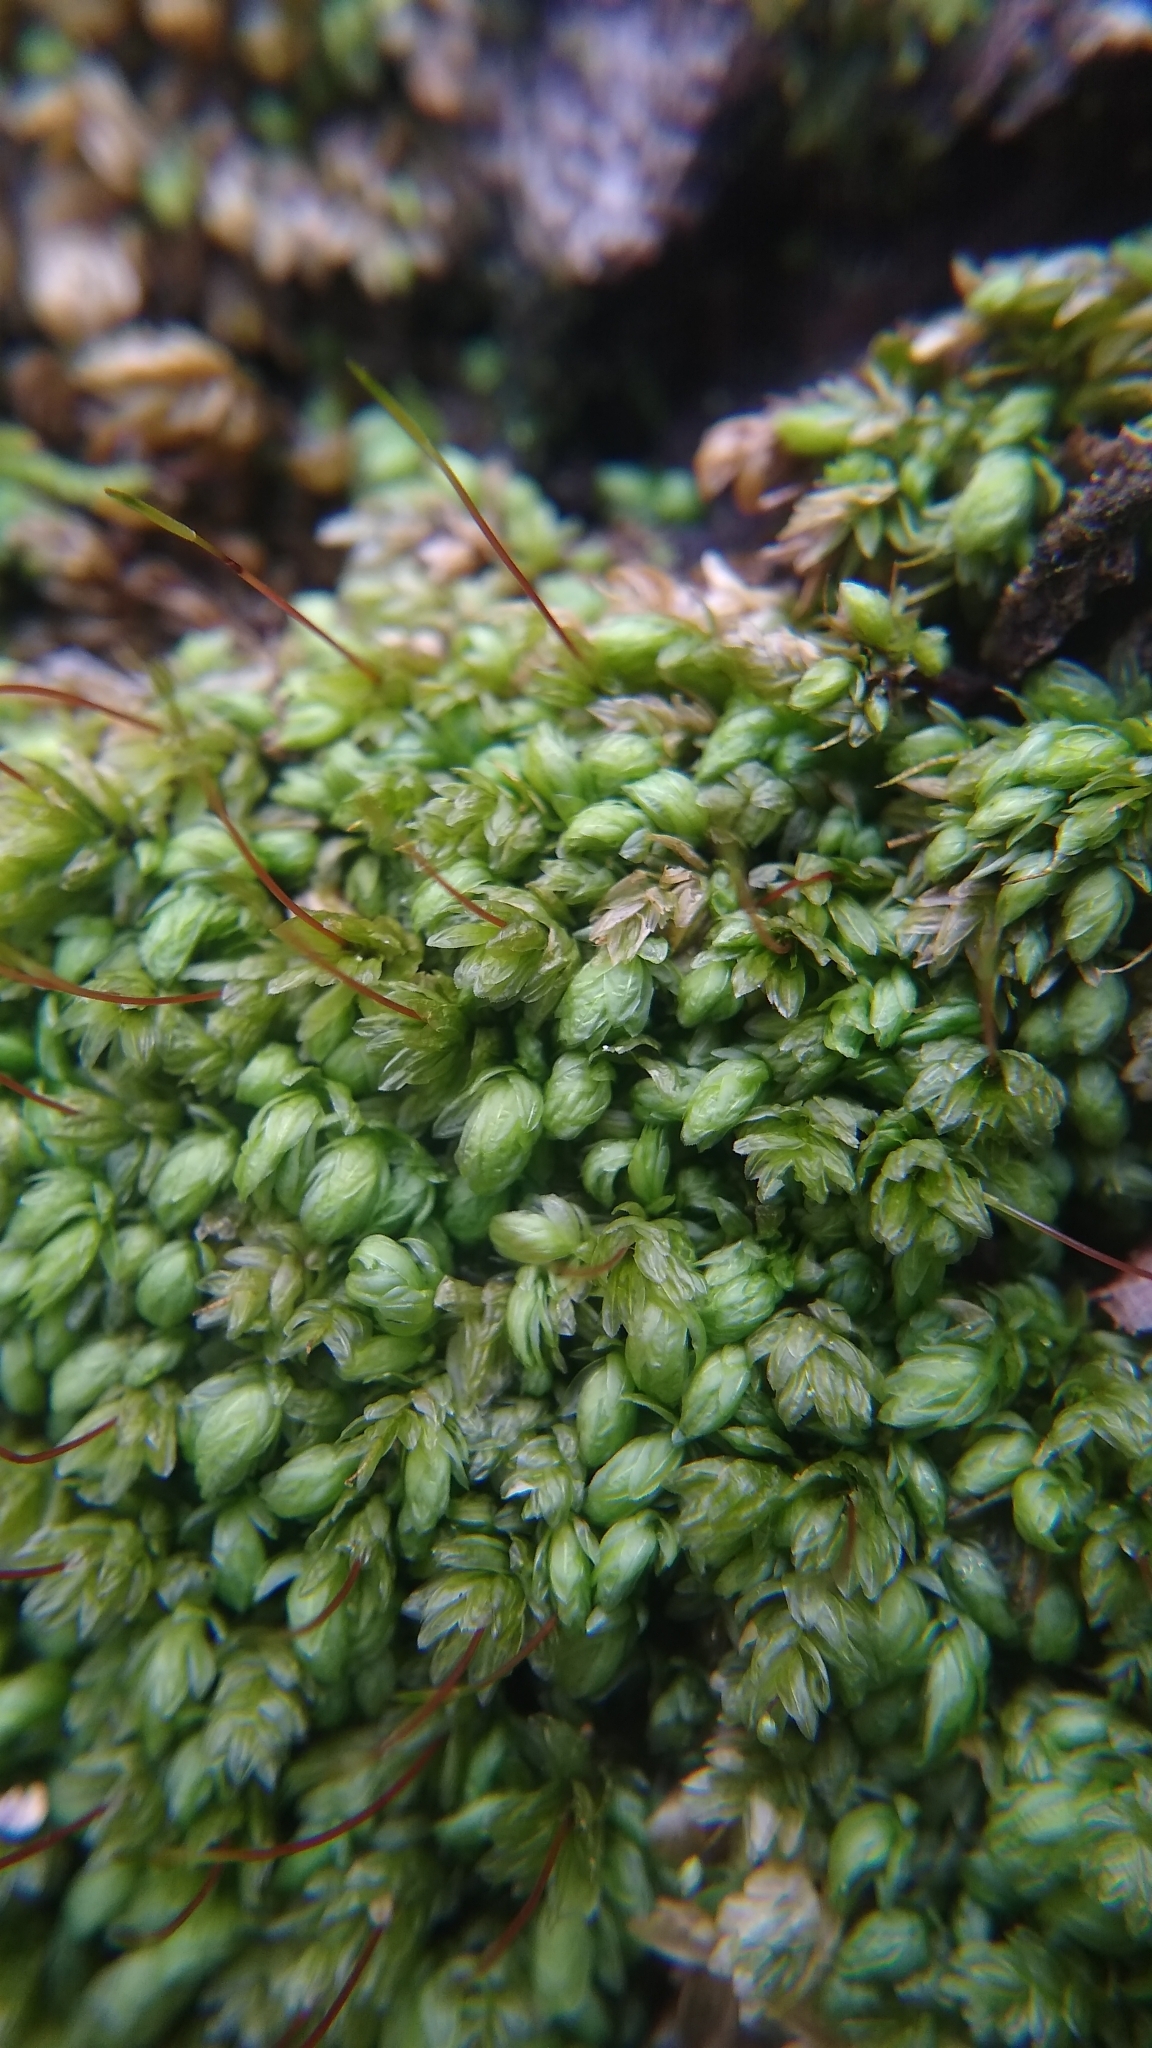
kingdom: Plantae
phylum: Bryophyta
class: Bryopsida
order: Aulacomniales
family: Aulacomniaceae
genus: Aulacomnium
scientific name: Aulacomnium heterostichum
